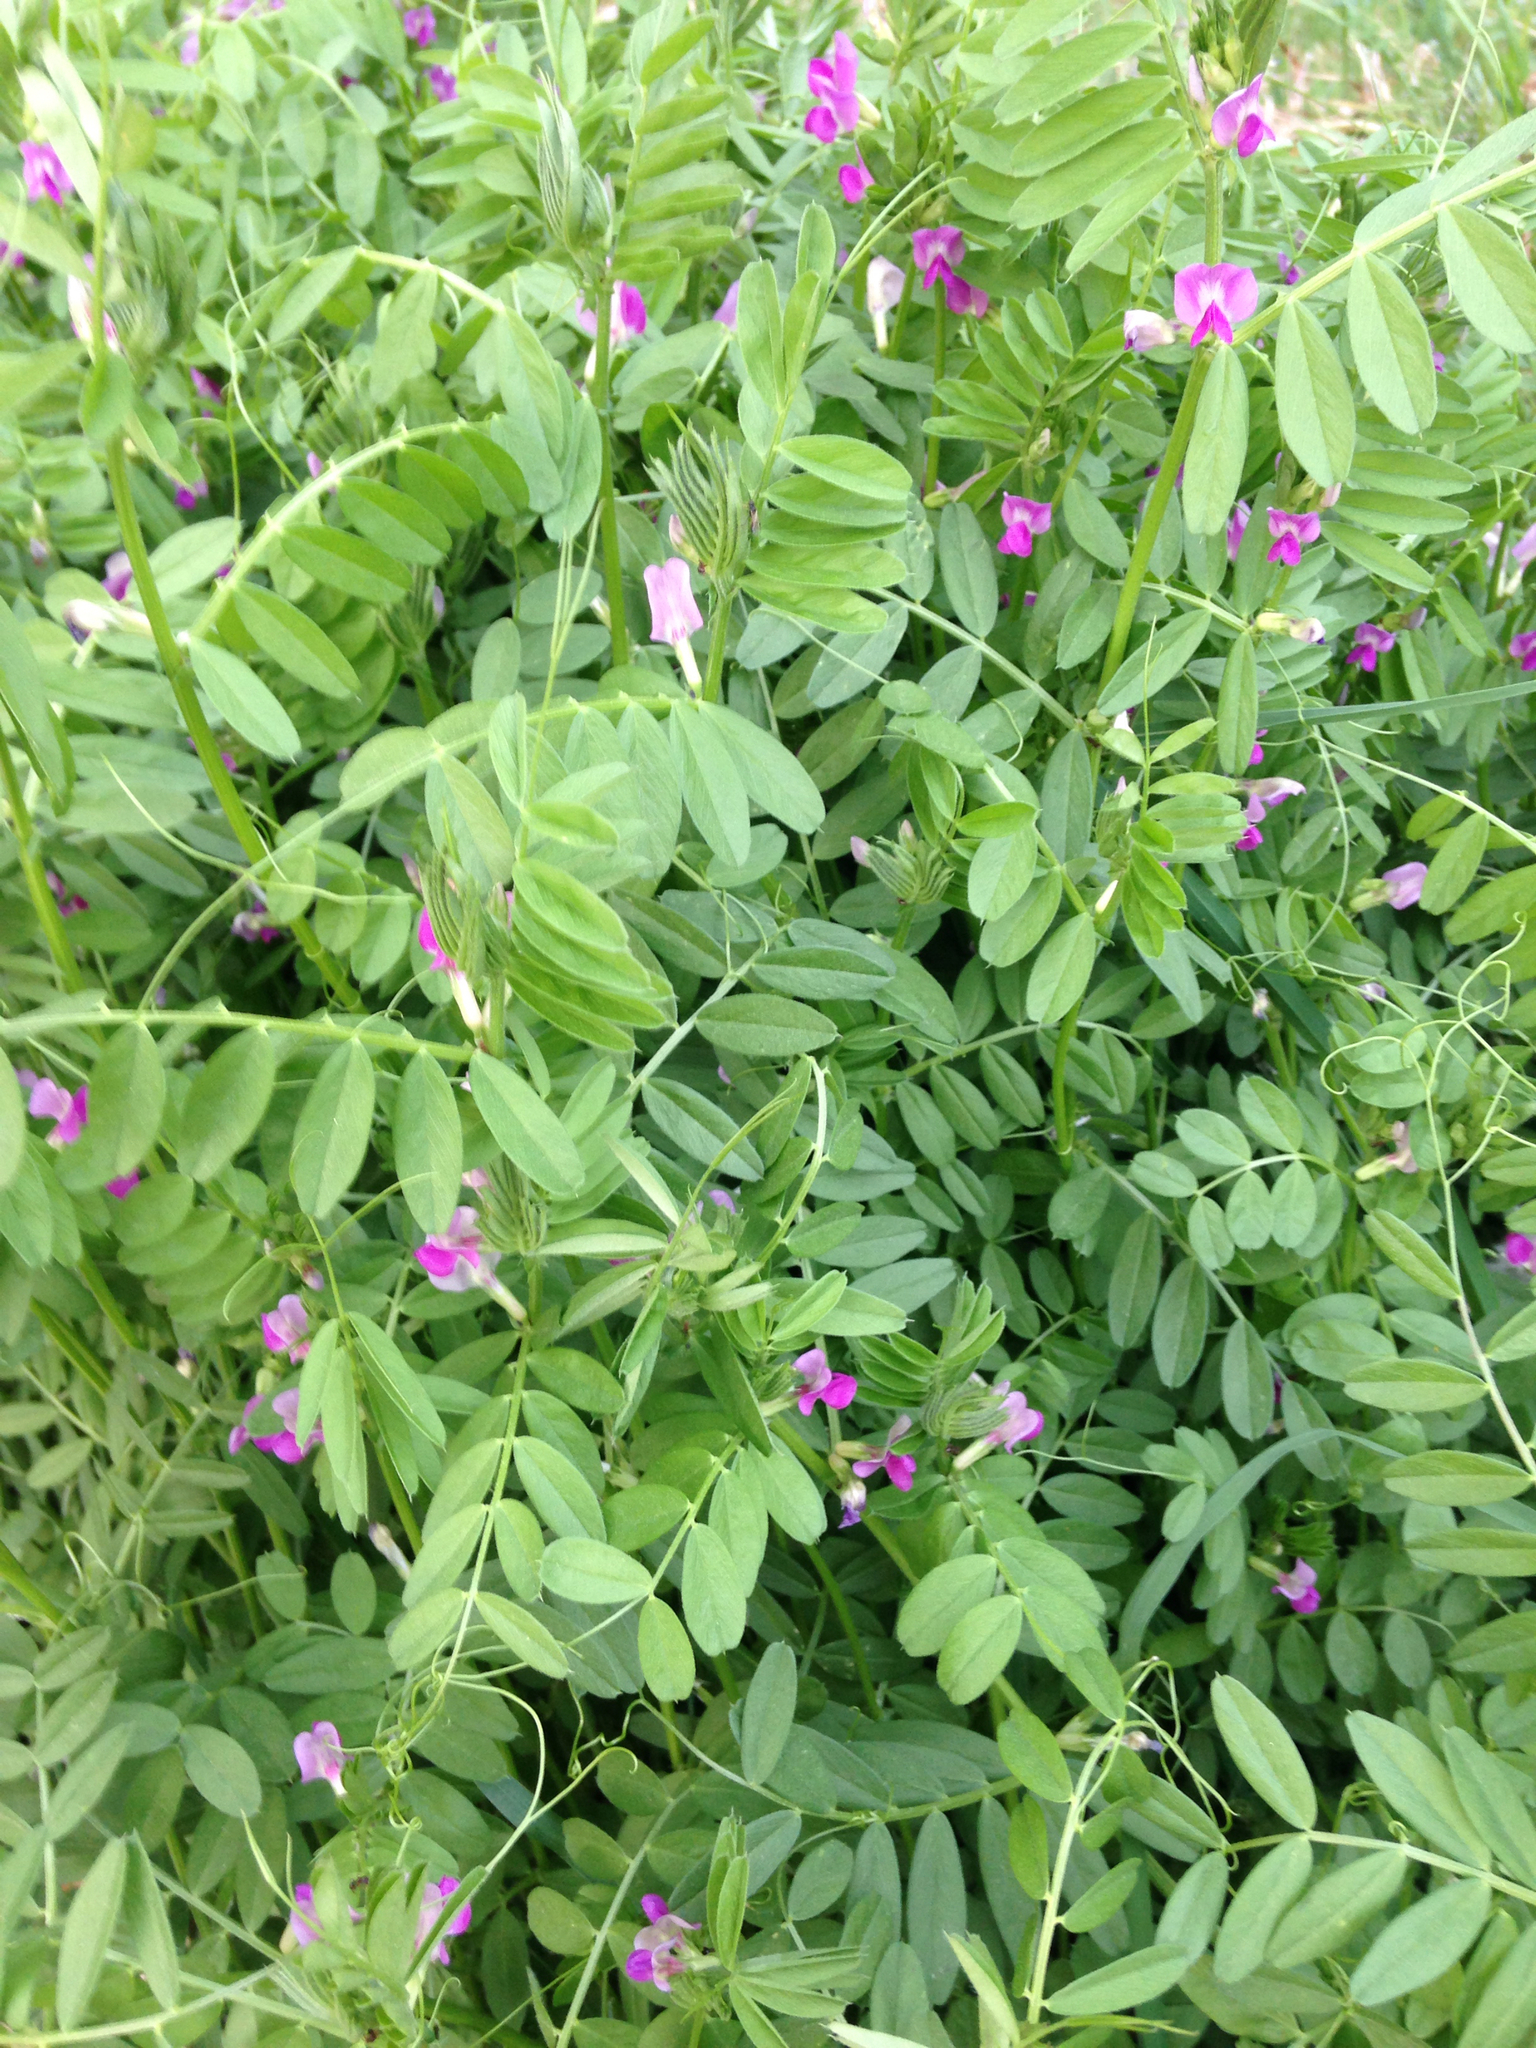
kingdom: Plantae
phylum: Tracheophyta
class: Magnoliopsida
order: Fabales
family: Fabaceae
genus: Vicia
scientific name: Vicia sativa
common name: Garden vetch
